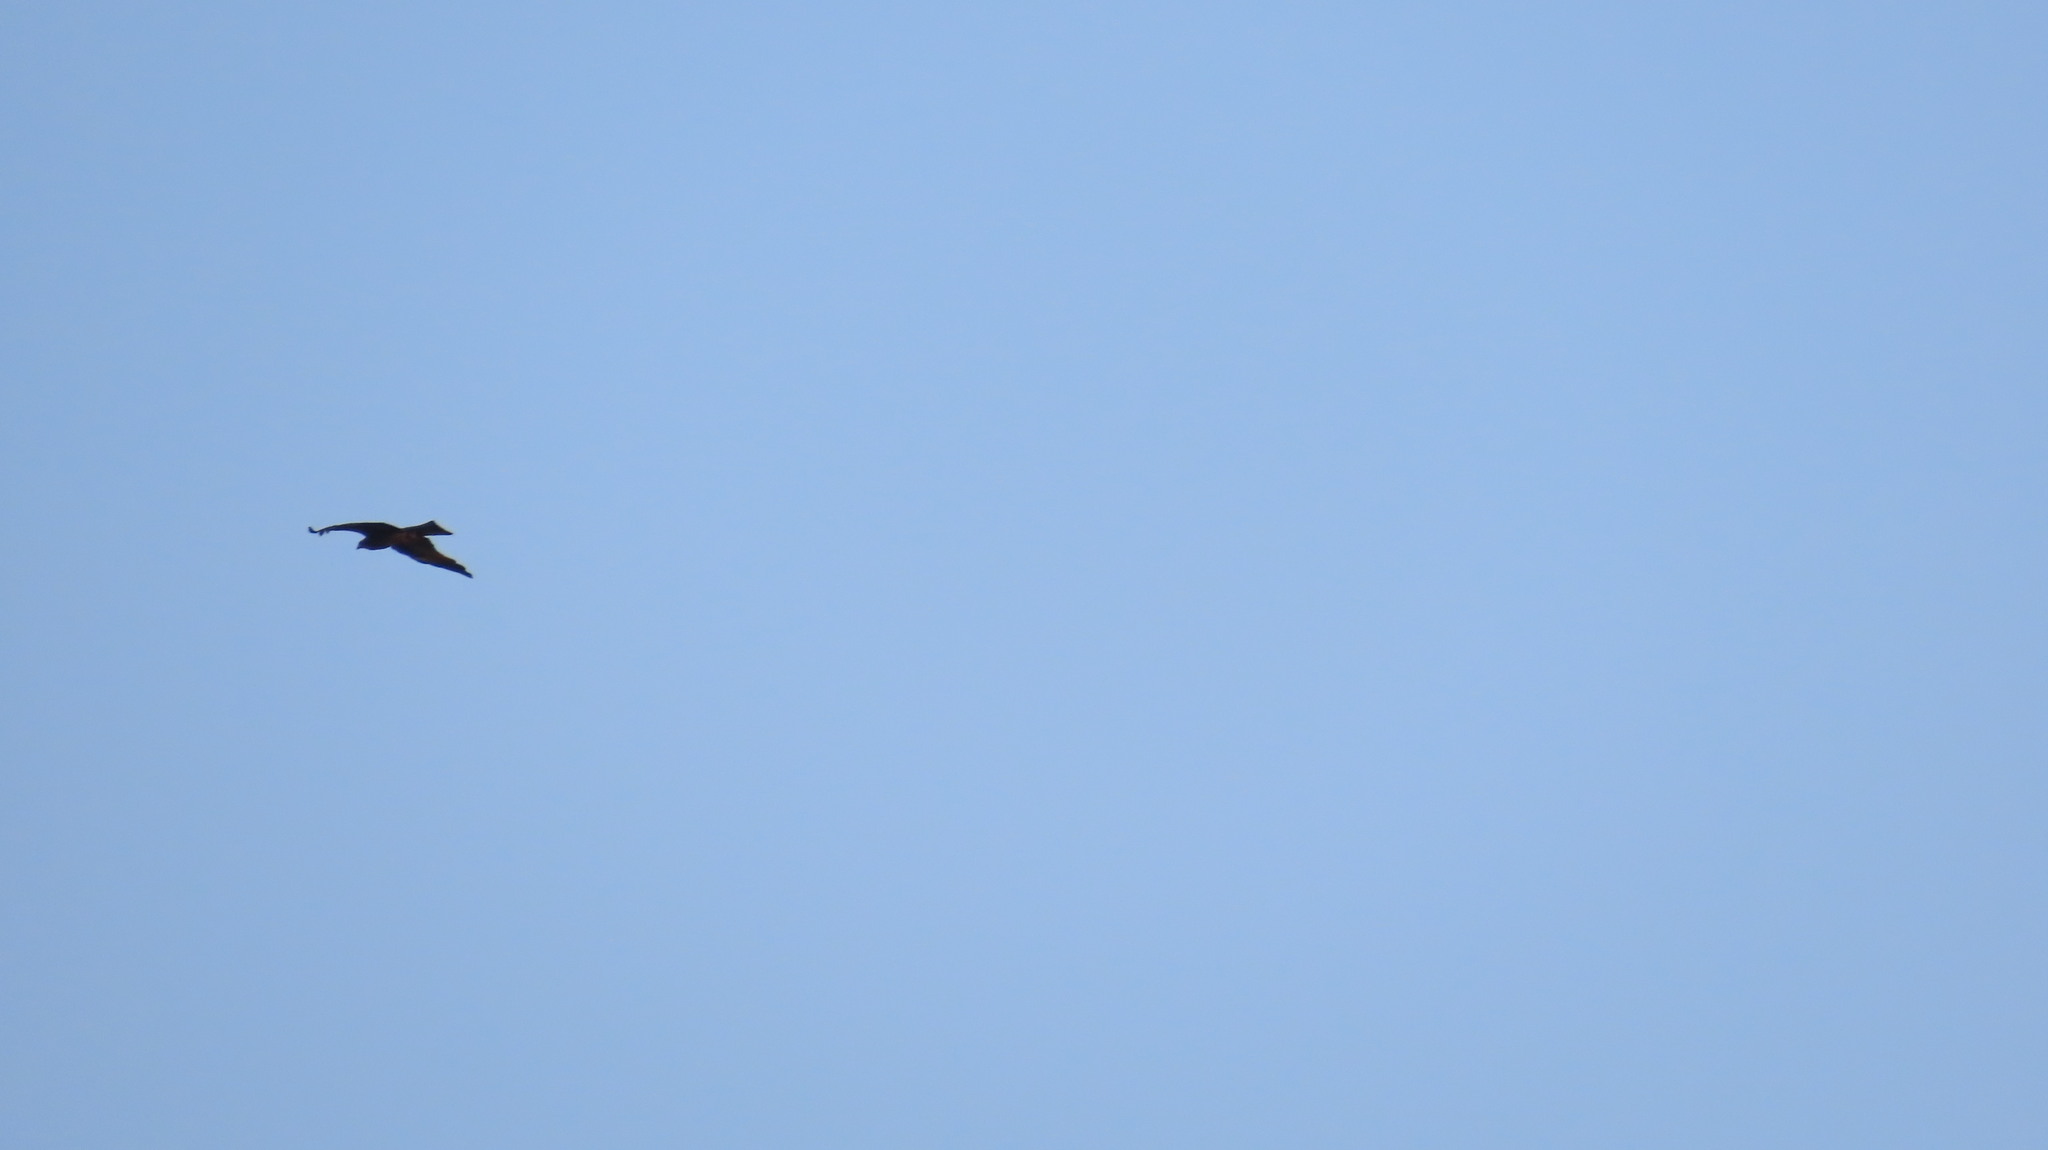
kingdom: Animalia
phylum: Chordata
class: Aves
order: Accipitriformes
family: Accipitridae
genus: Milvus
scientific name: Milvus migrans
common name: Black kite
